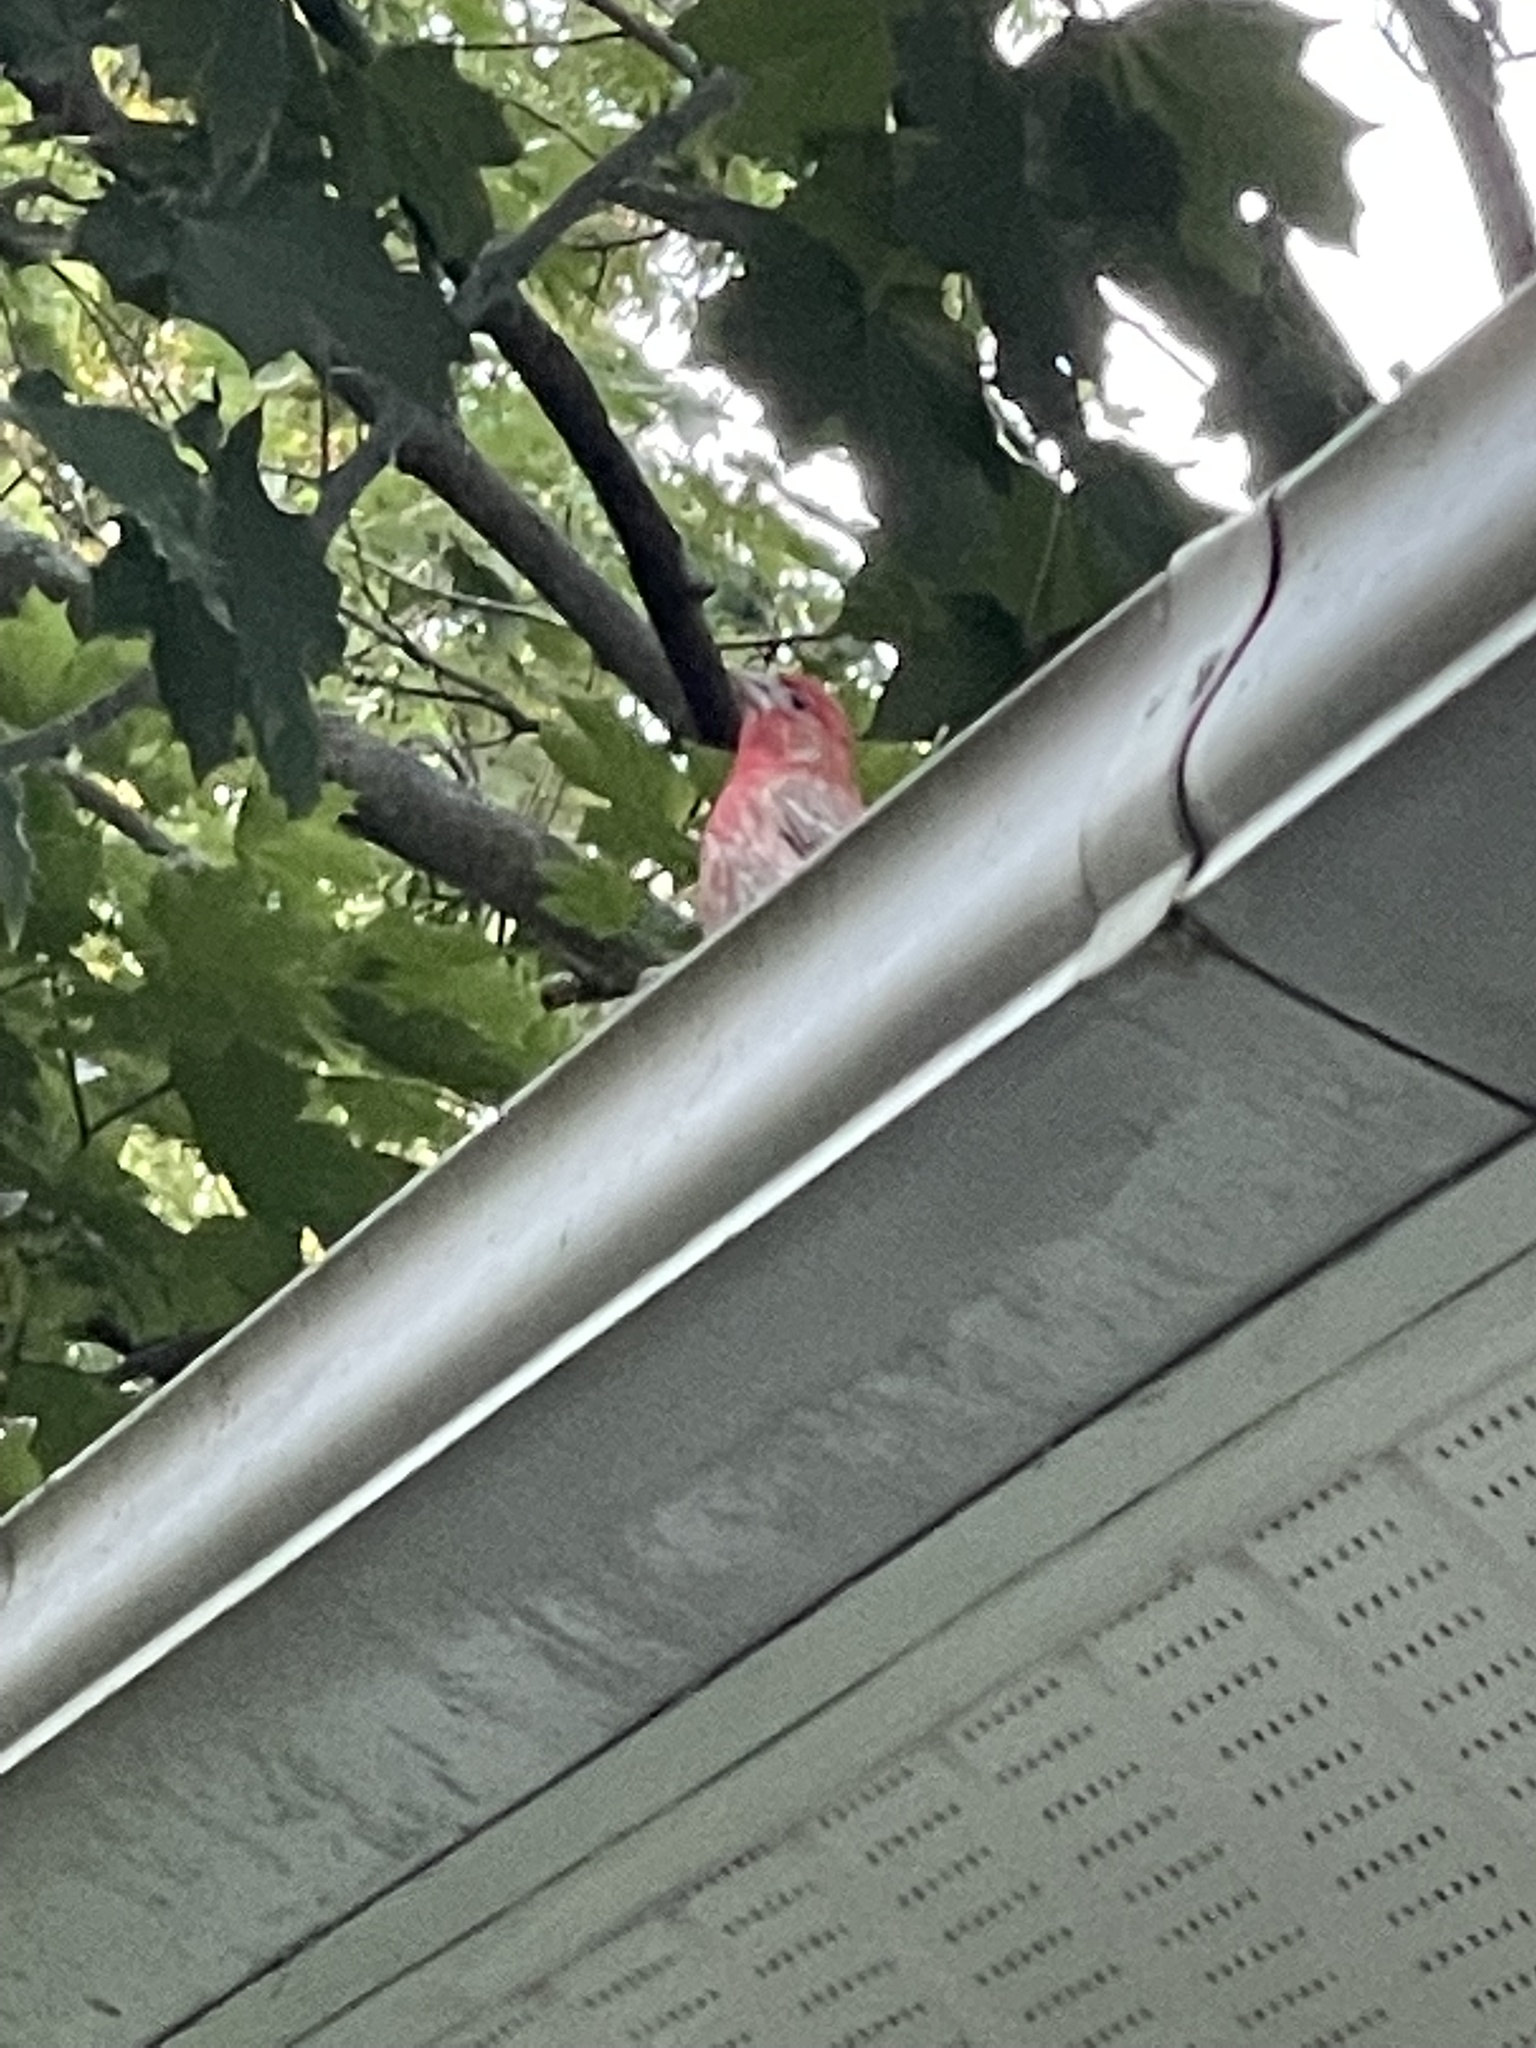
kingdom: Animalia
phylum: Chordata
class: Aves
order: Passeriformes
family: Fringillidae
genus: Haemorhous
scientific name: Haemorhous mexicanus
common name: House finch
